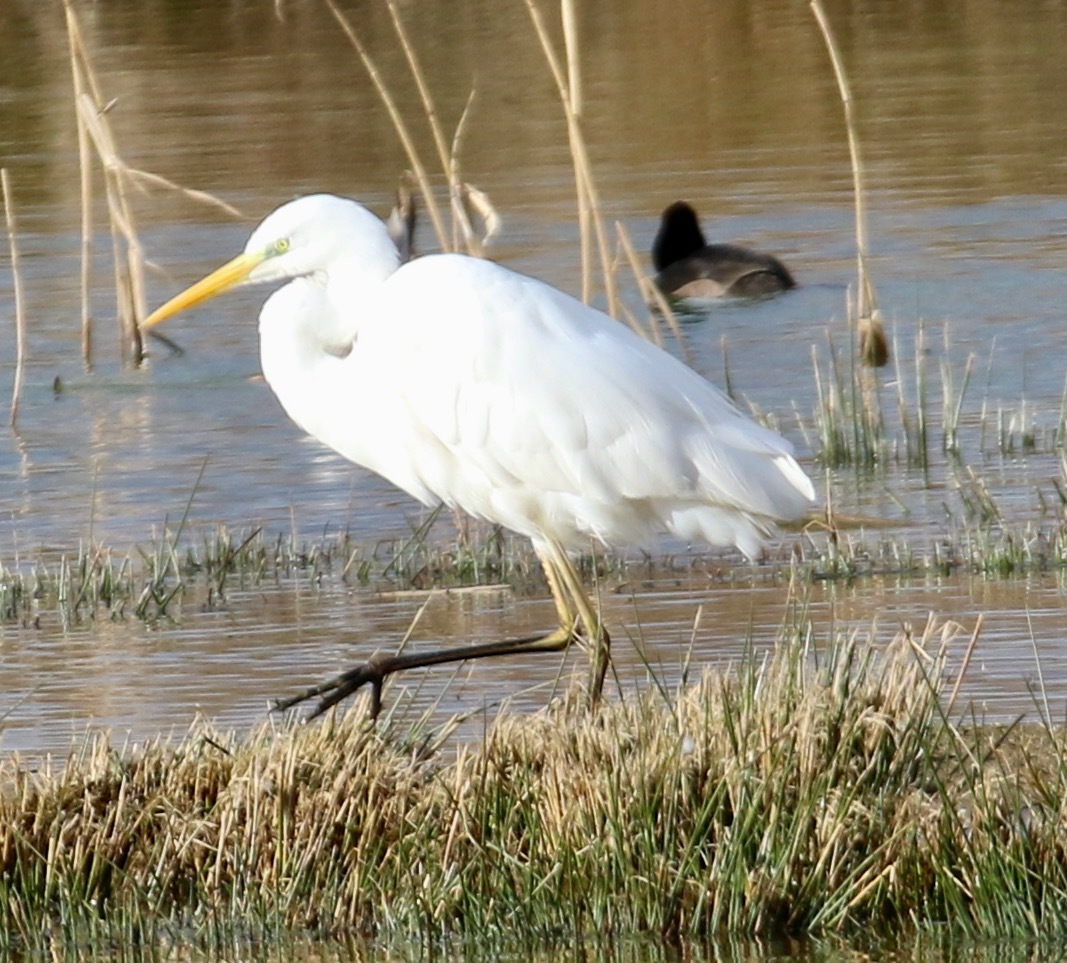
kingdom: Animalia
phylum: Chordata
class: Aves
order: Pelecaniformes
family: Ardeidae
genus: Ardea
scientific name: Ardea alba
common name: Great egret
